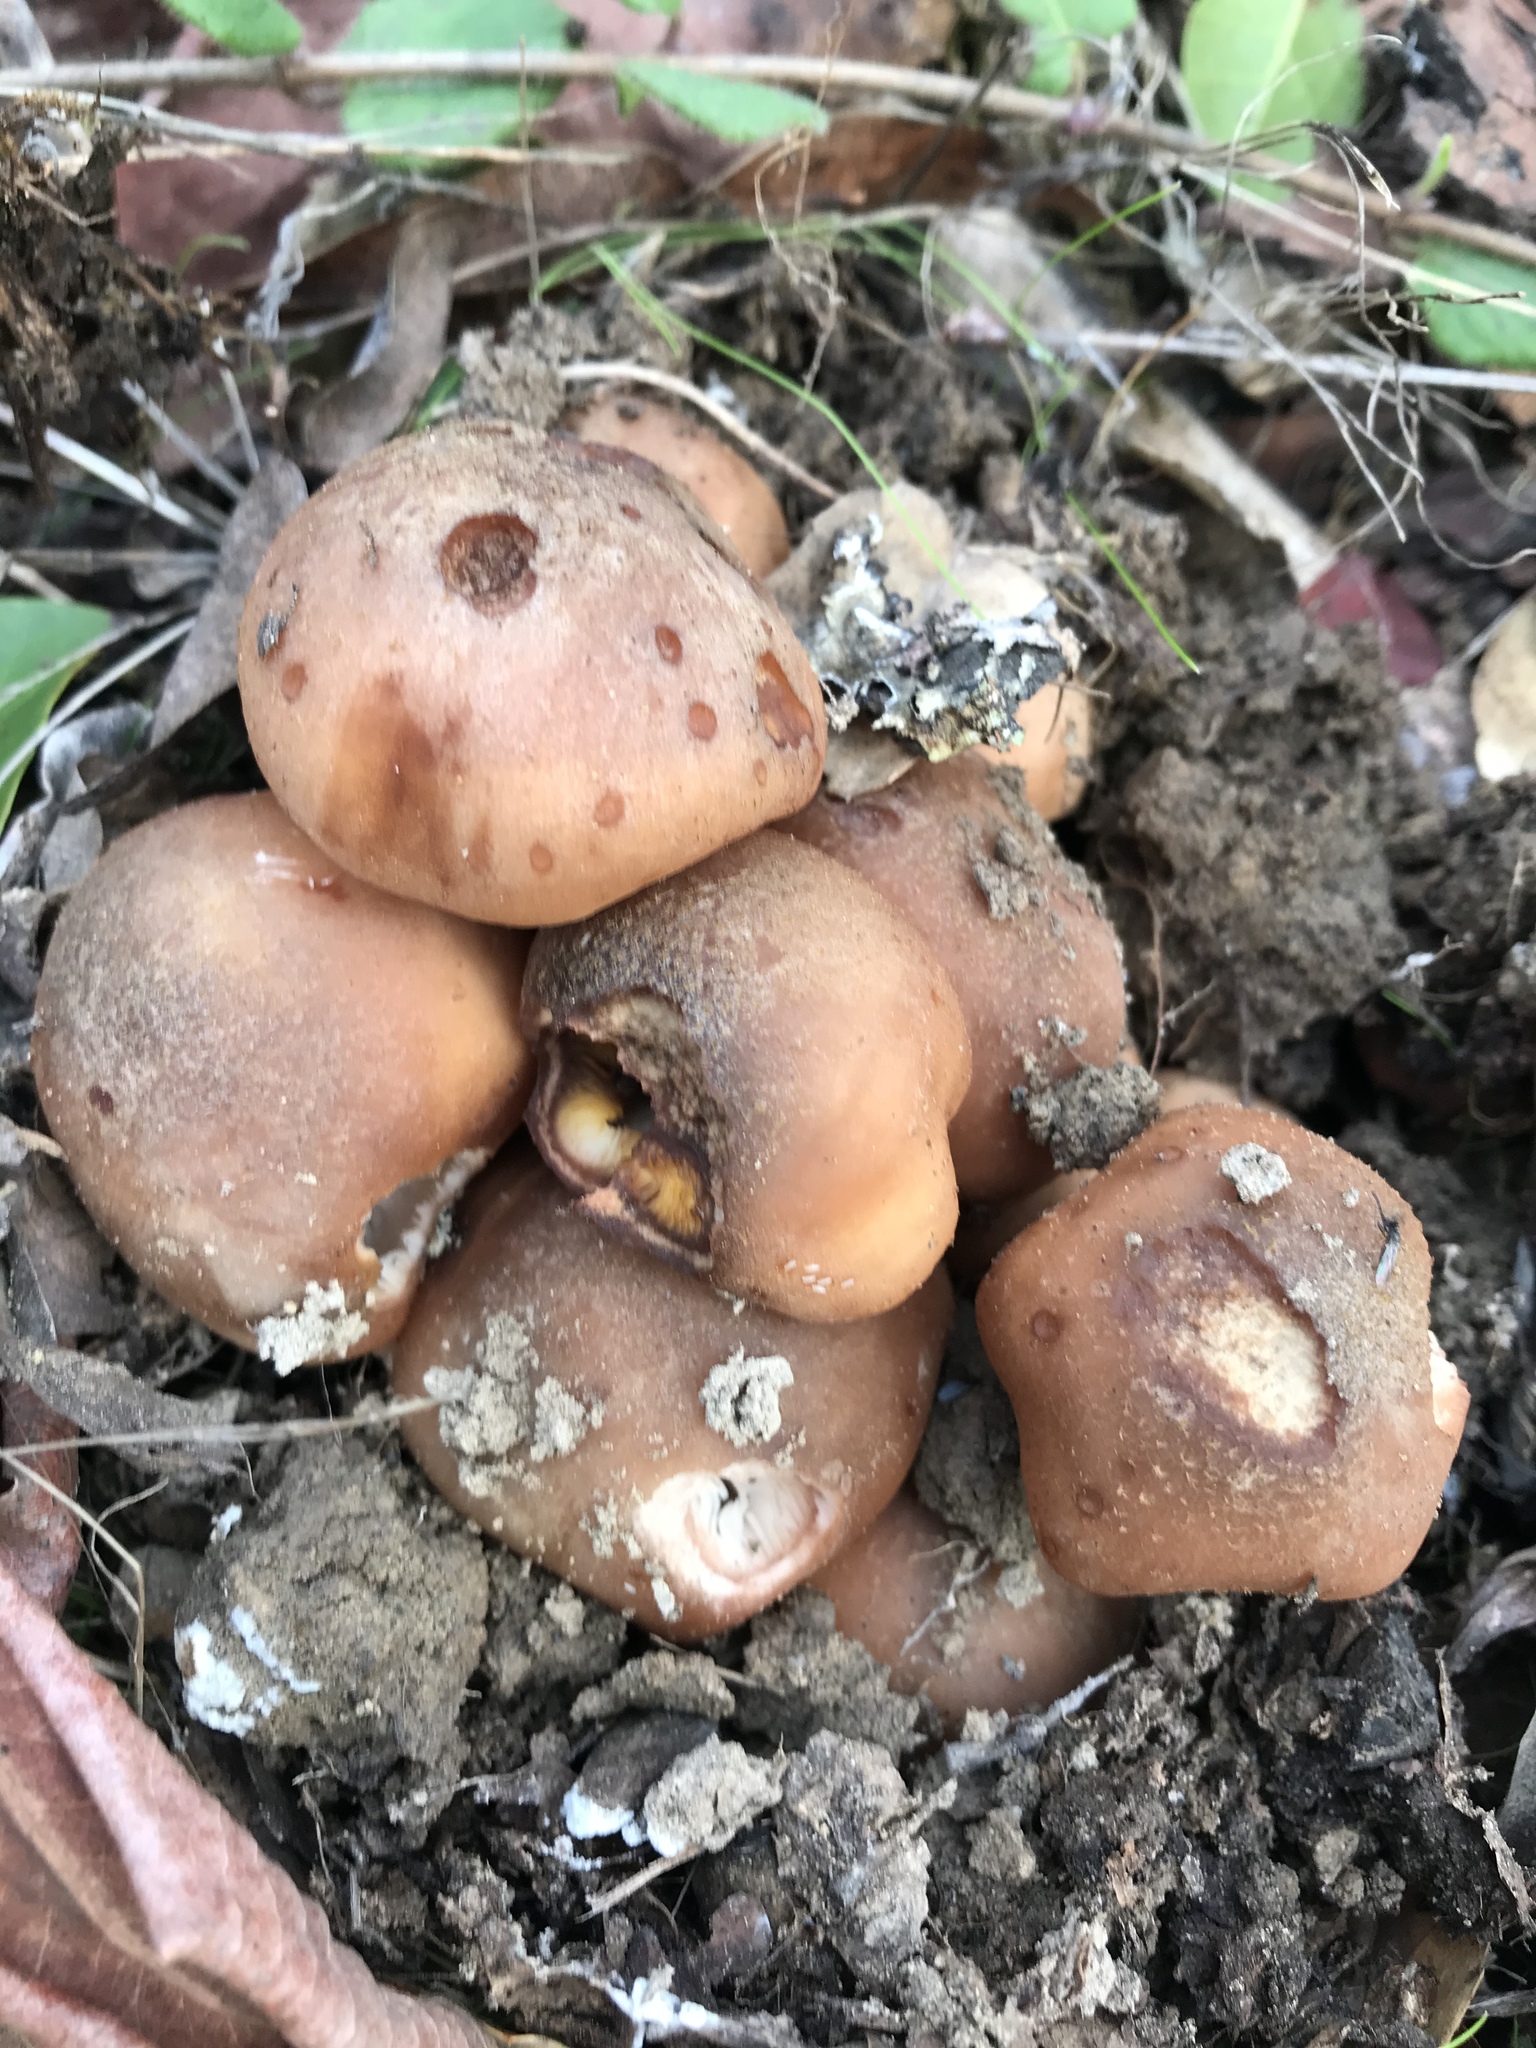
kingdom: Fungi
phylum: Basidiomycota
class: Agaricomycetes
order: Agaricales
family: Physalacriaceae
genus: Armillaria
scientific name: Armillaria mellea
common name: Honey fungus
